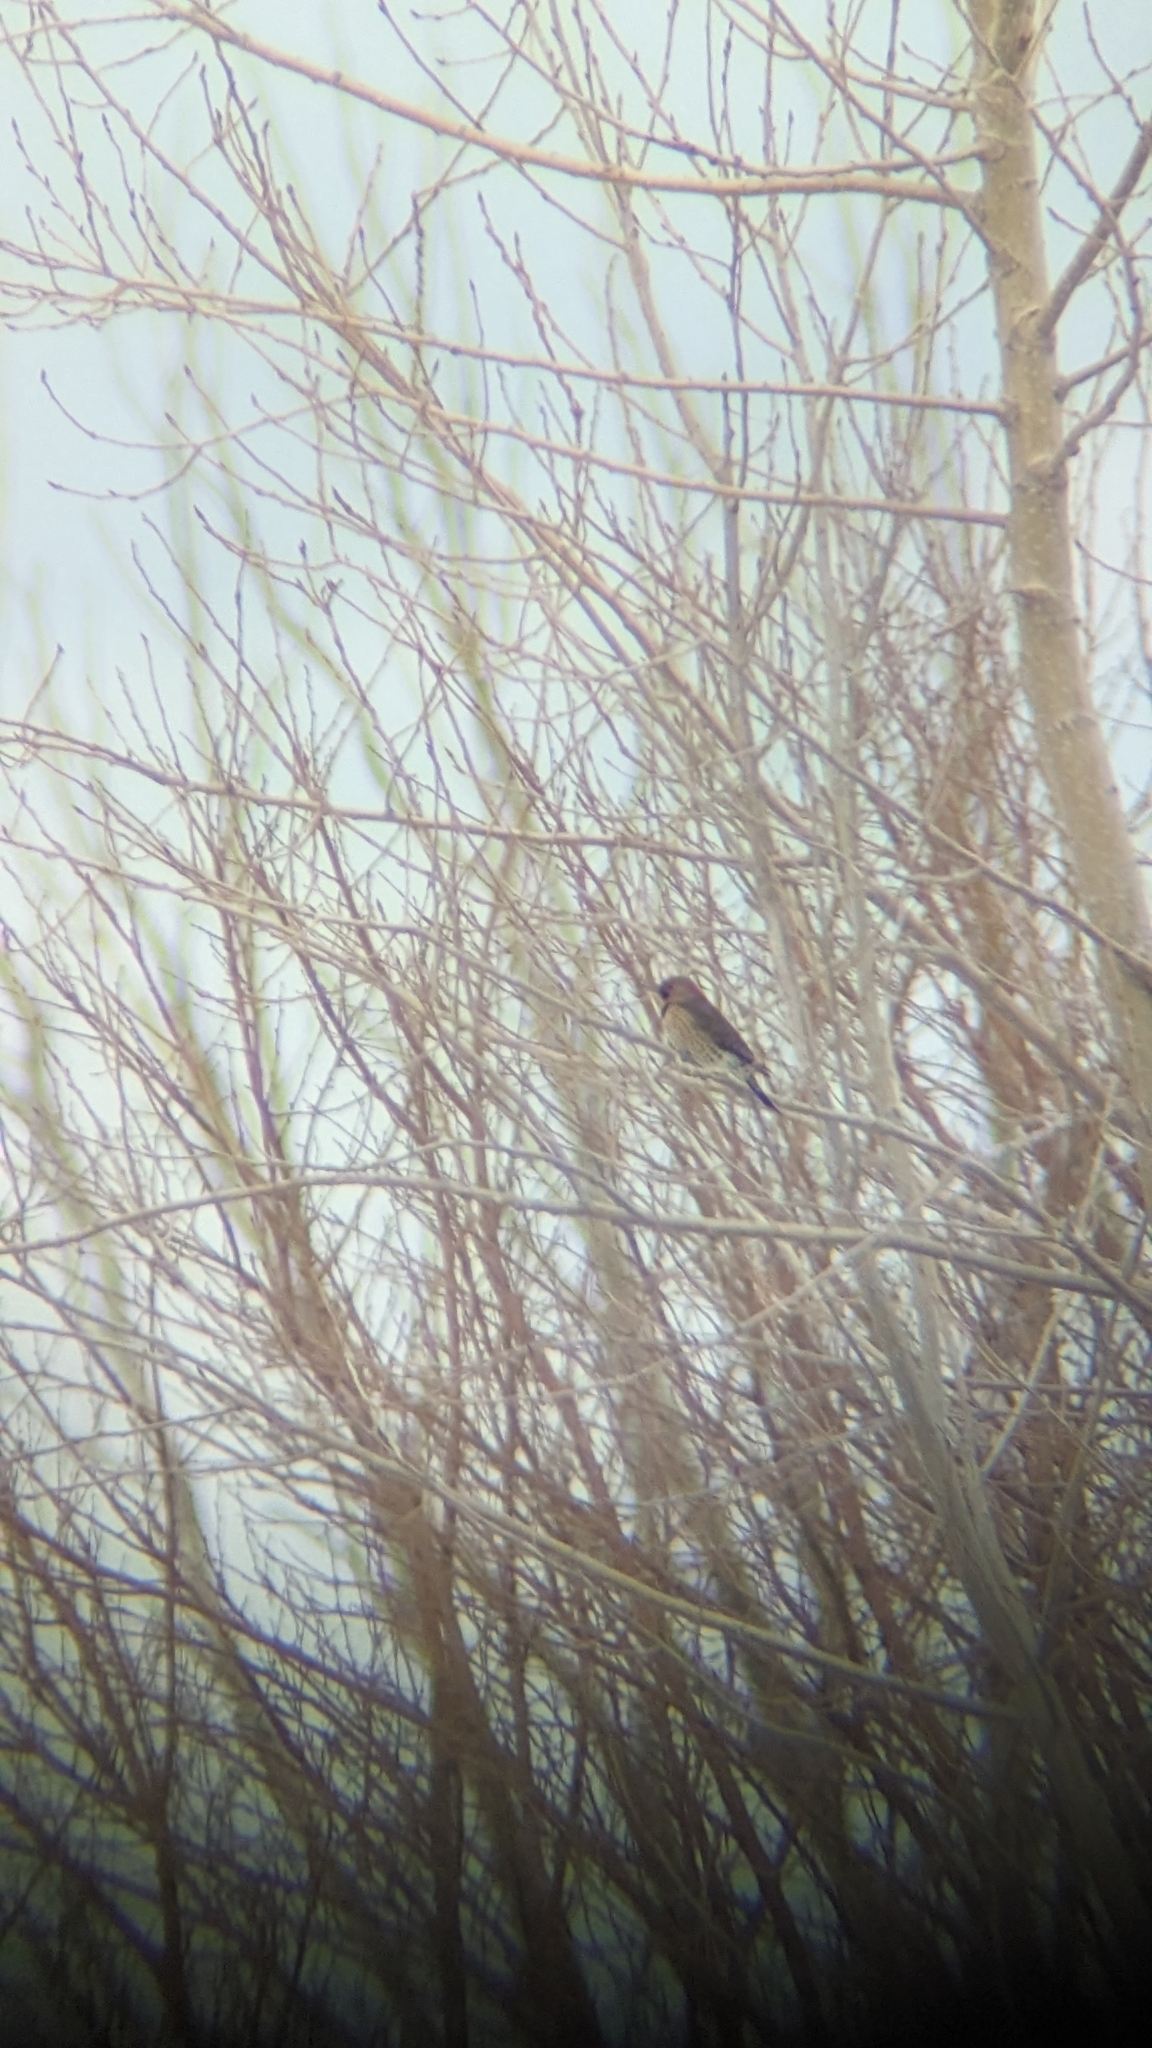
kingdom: Animalia
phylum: Chordata
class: Aves
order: Piciformes
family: Picidae
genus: Colaptes
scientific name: Colaptes auratus
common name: Northern flicker
